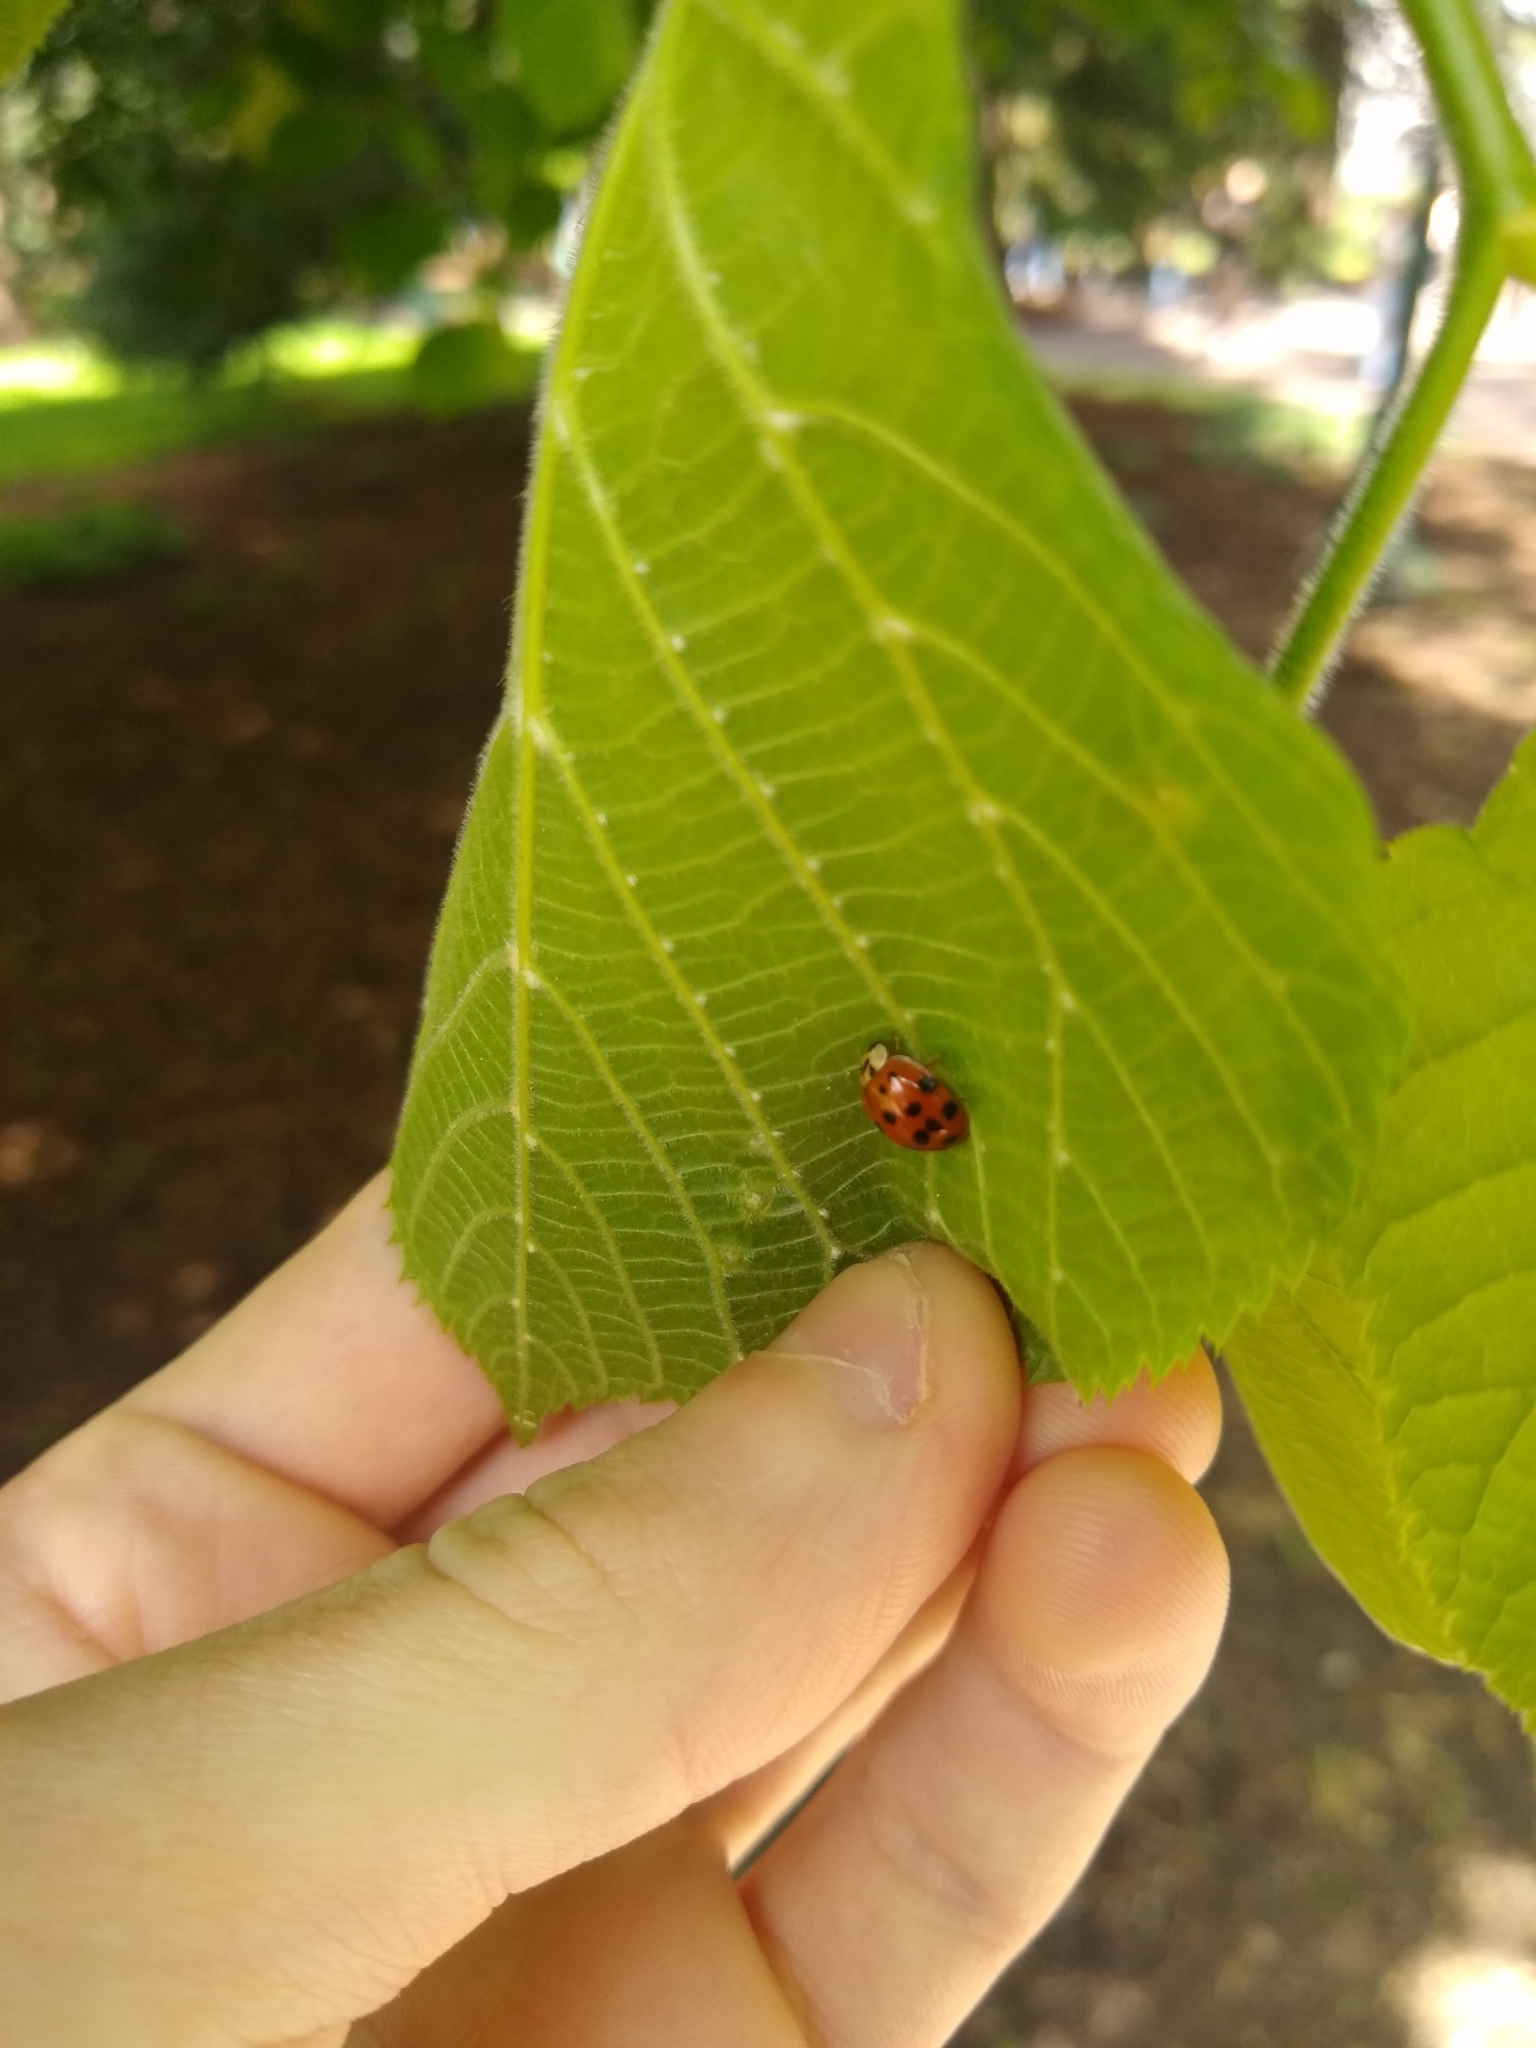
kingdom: Animalia
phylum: Arthropoda
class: Insecta
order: Coleoptera
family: Coccinellidae
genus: Harmonia
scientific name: Harmonia axyridis
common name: Harlequin ladybird
